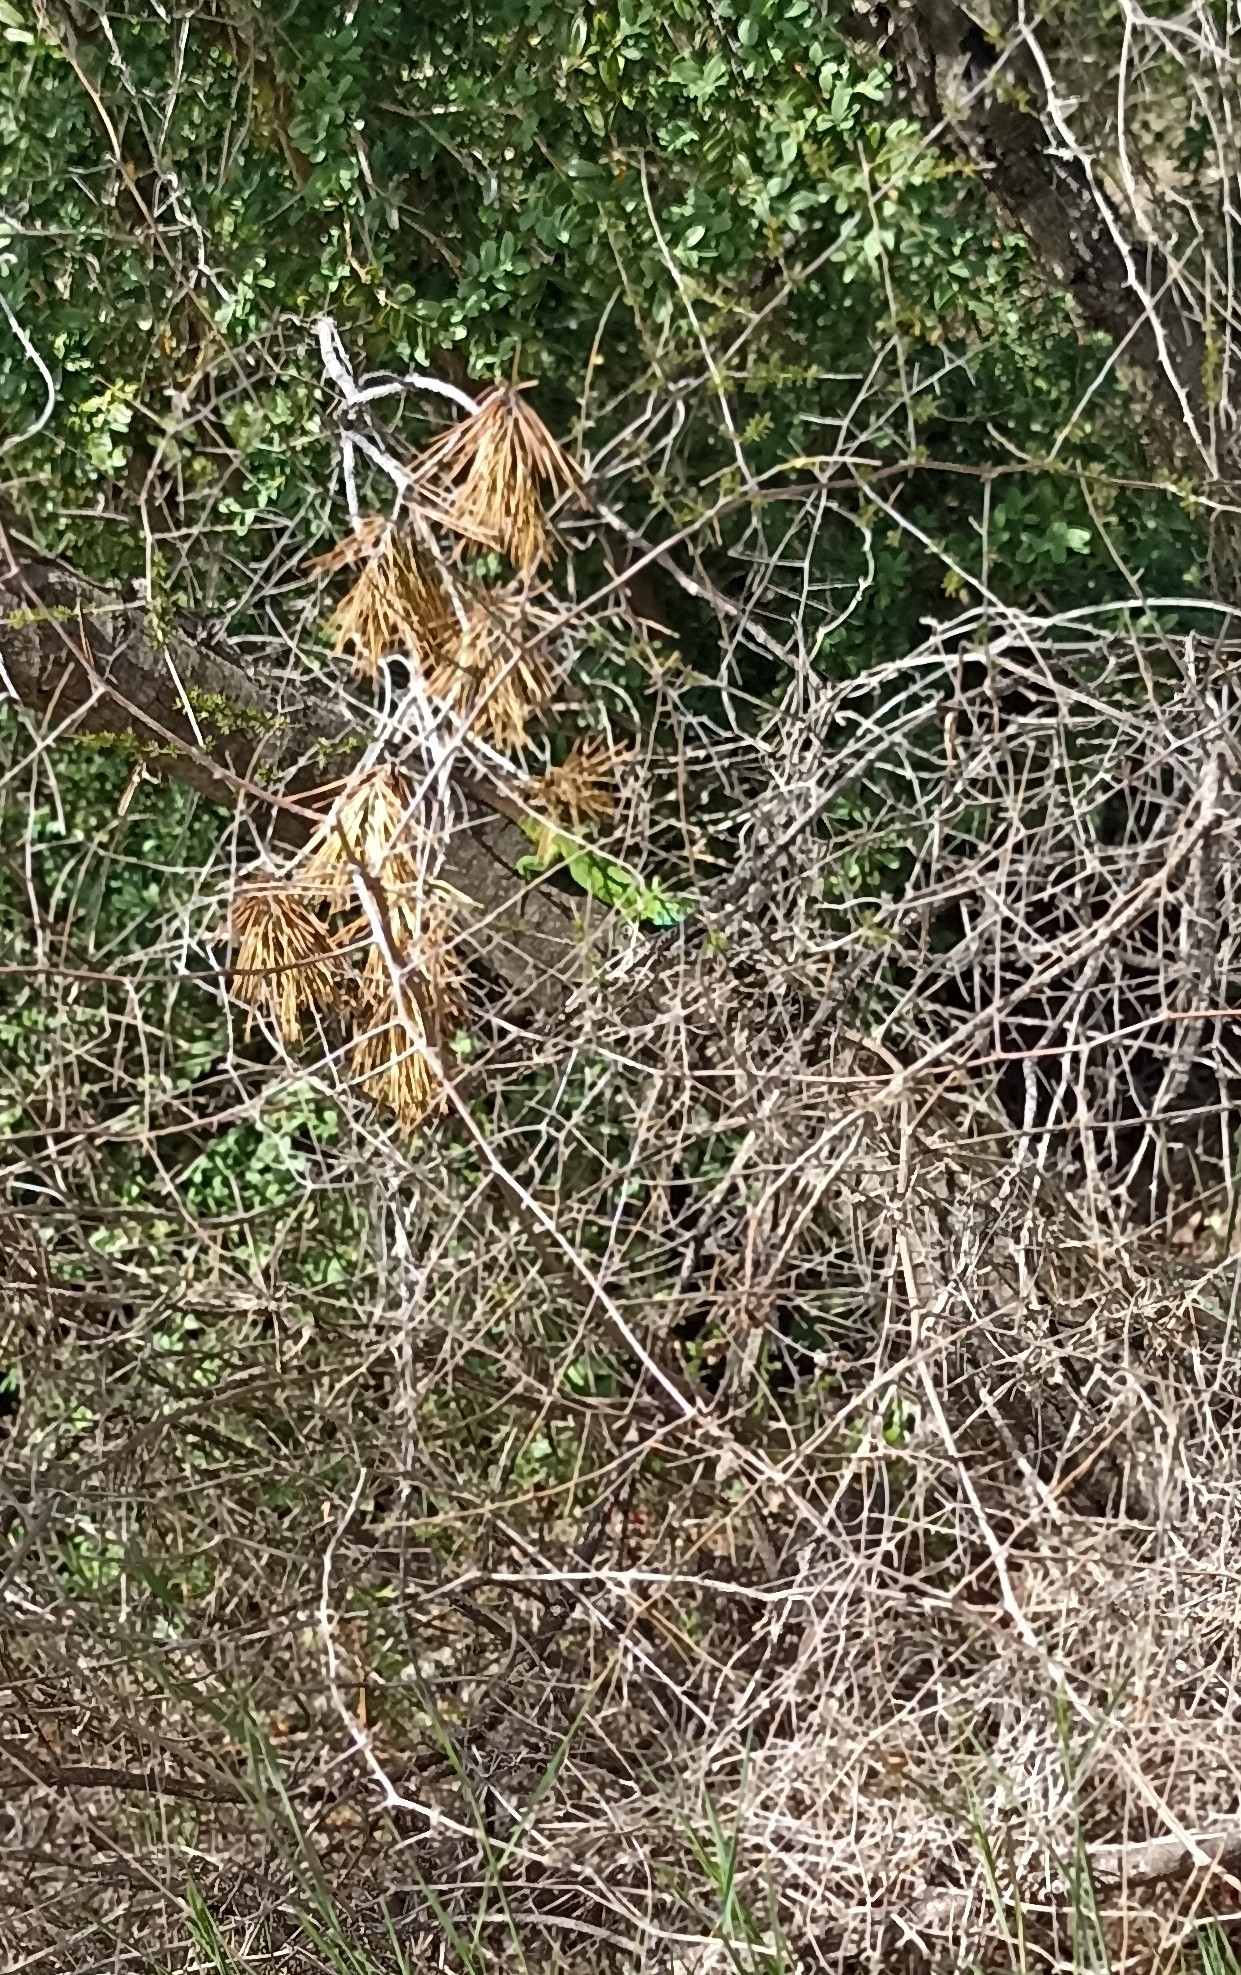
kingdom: Animalia
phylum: Chordata
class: Squamata
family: Lacertidae
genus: Lacerta
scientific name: Lacerta bilineata
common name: Western green lizard
